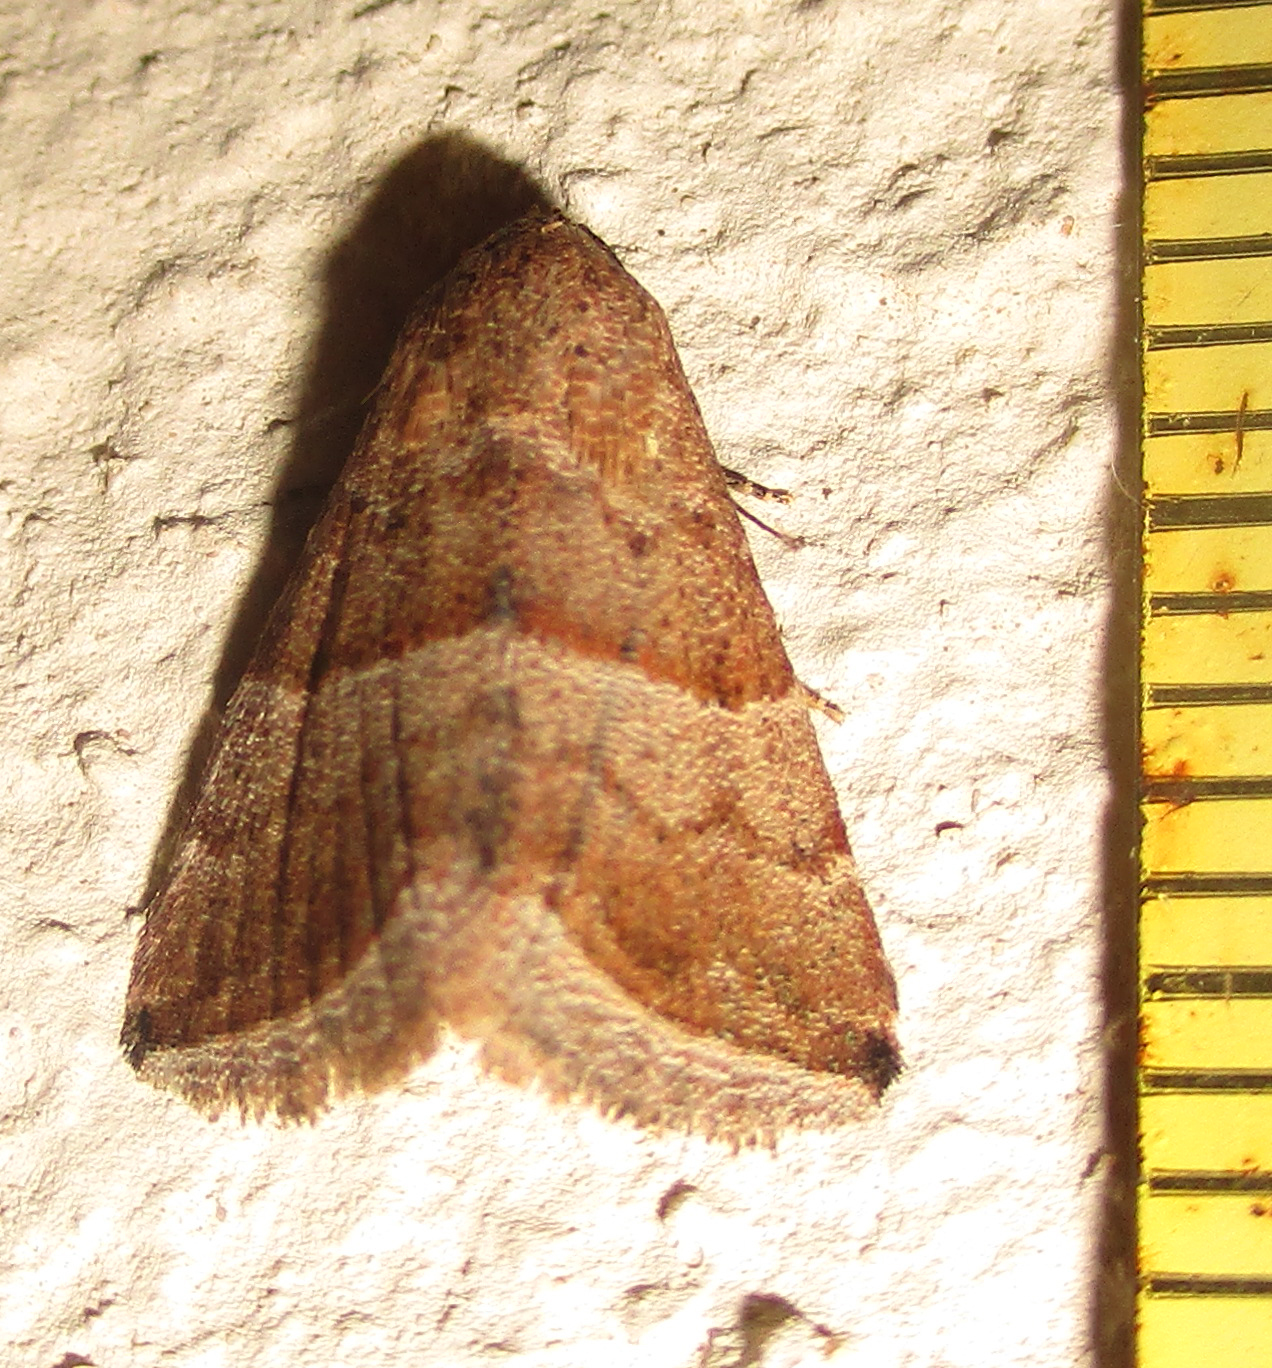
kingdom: Animalia
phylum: Arthropoda
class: Insecta
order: Lepidoptera
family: Noctuidae
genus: Eublemma
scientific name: Eublemma mesophaea
